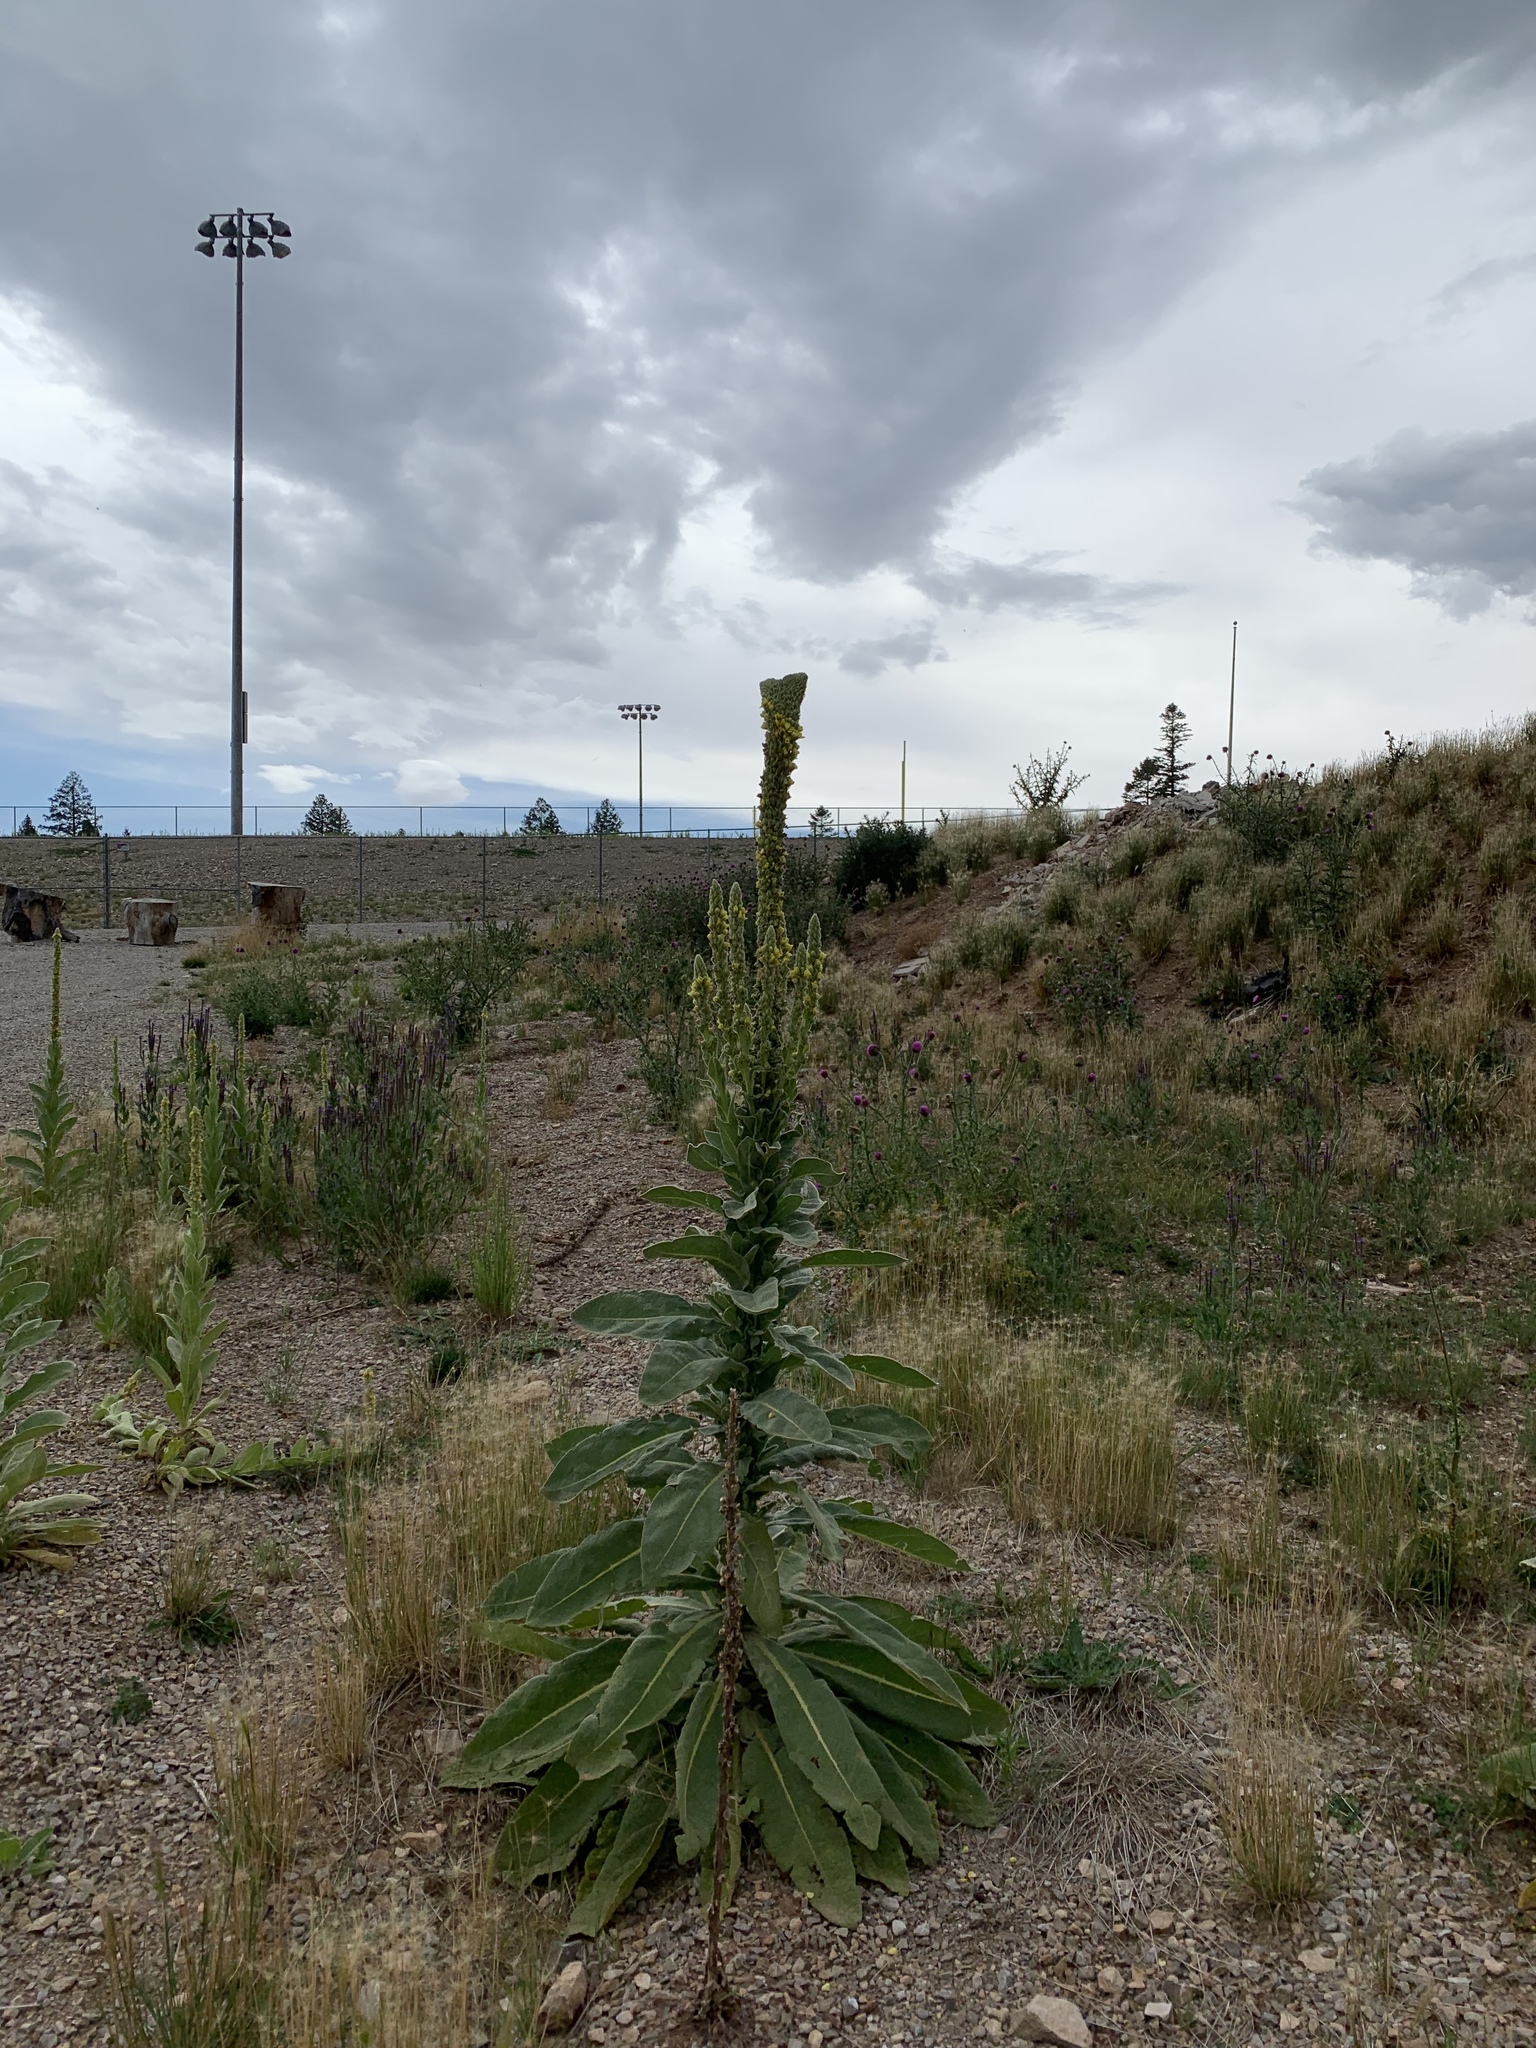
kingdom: Plantae
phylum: Tracheophyta
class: Magnoliopsida
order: Lamiales
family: Scrophulariaceae
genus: Verbascum
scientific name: Verbascum thapsus
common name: Common mullein
